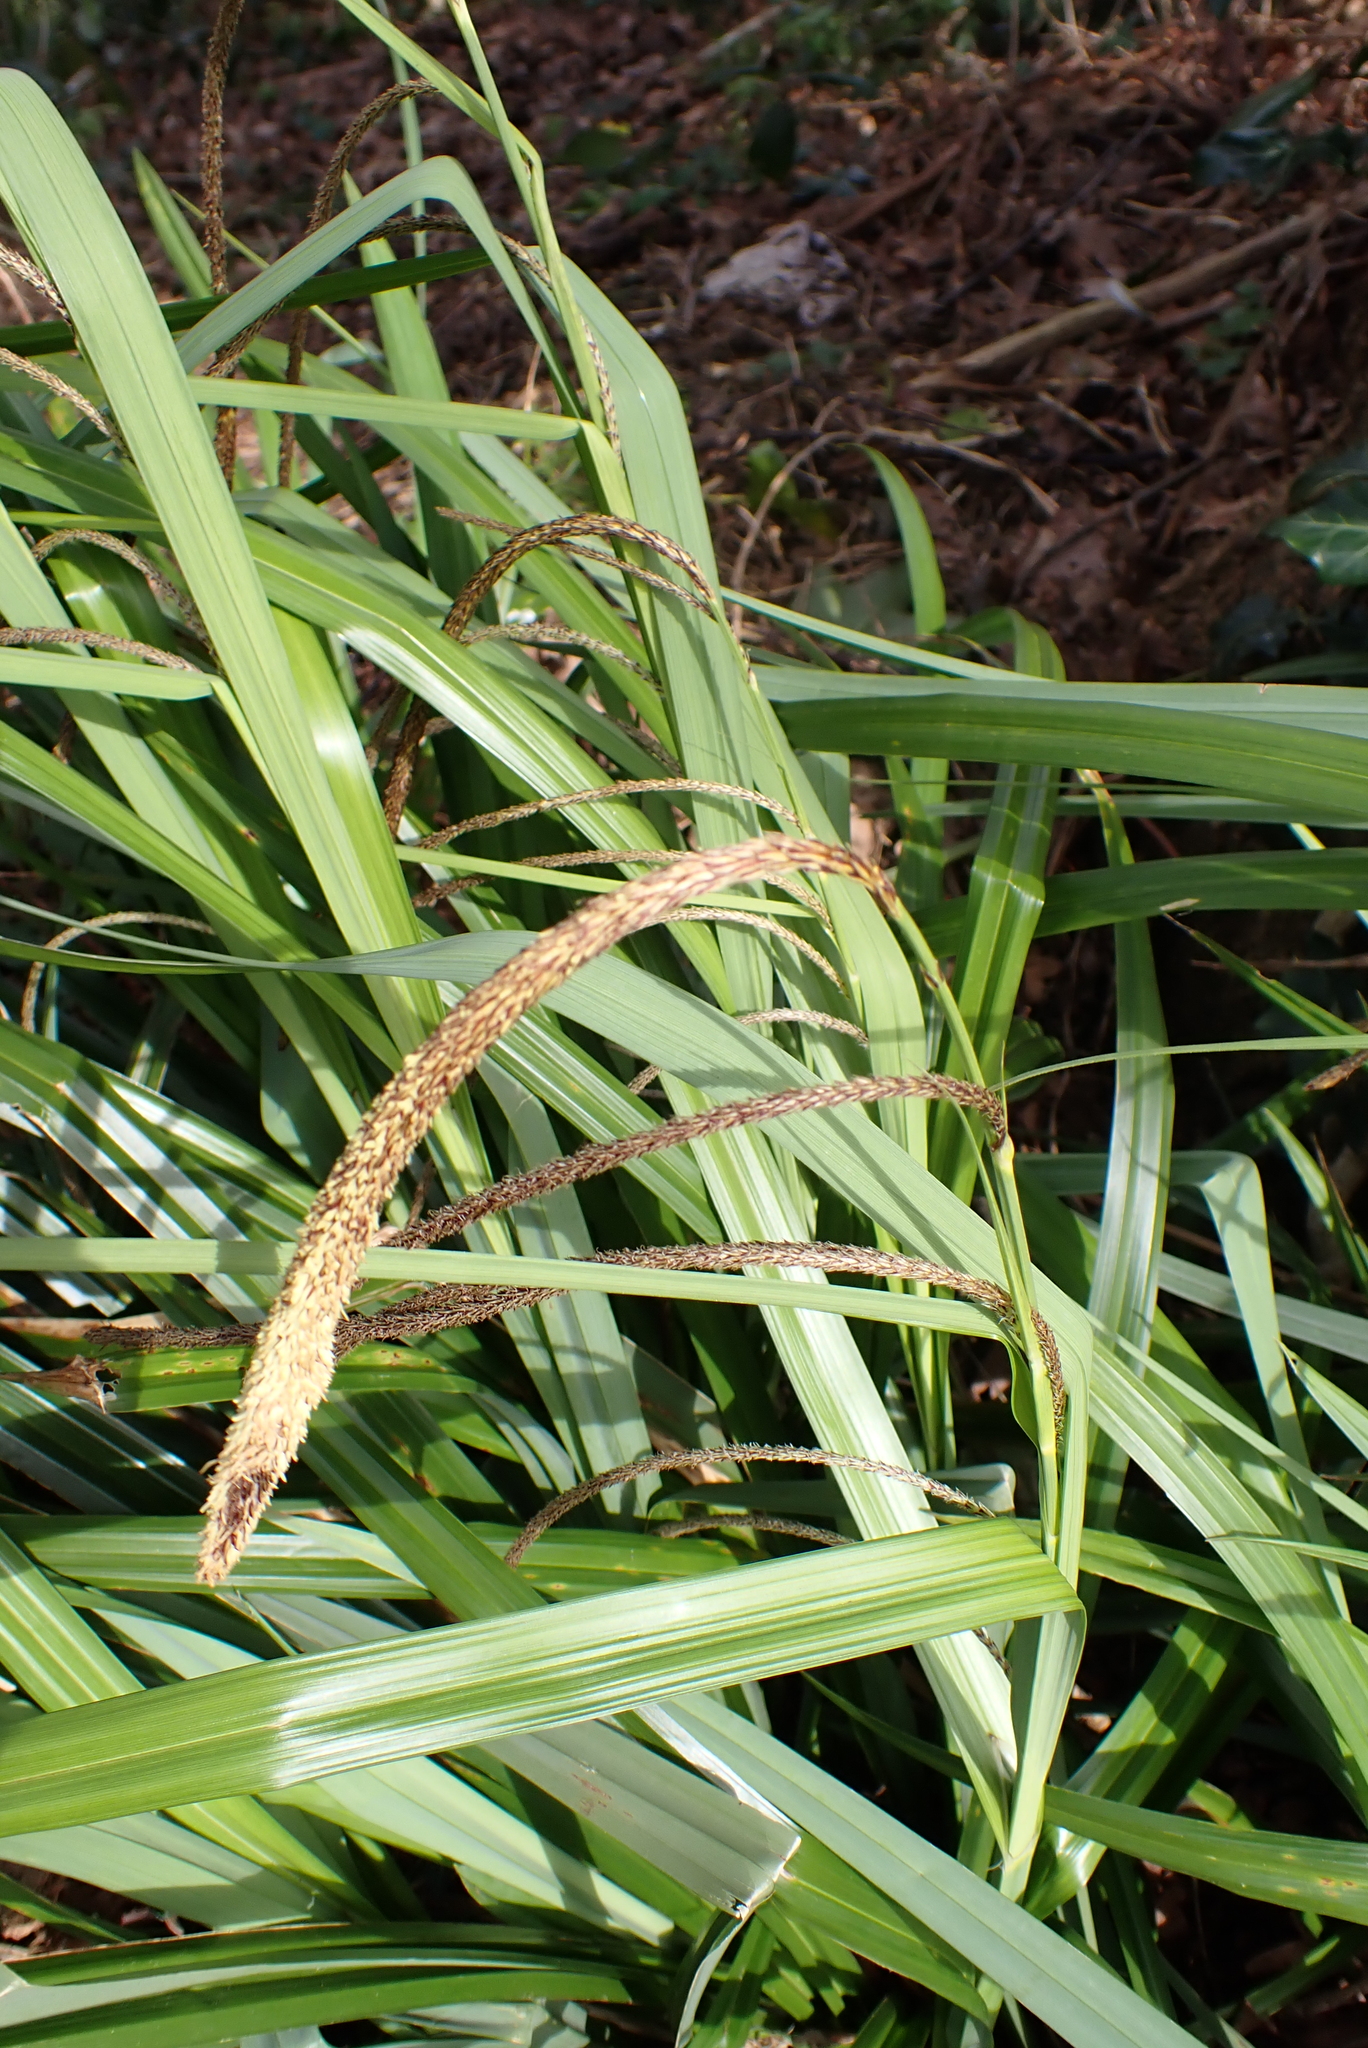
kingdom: Plantae
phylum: Tracheophyta
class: Liliopsida
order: Poales
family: Cyperaceae
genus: Carex
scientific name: Carex pendula
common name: Pendulous sedge
